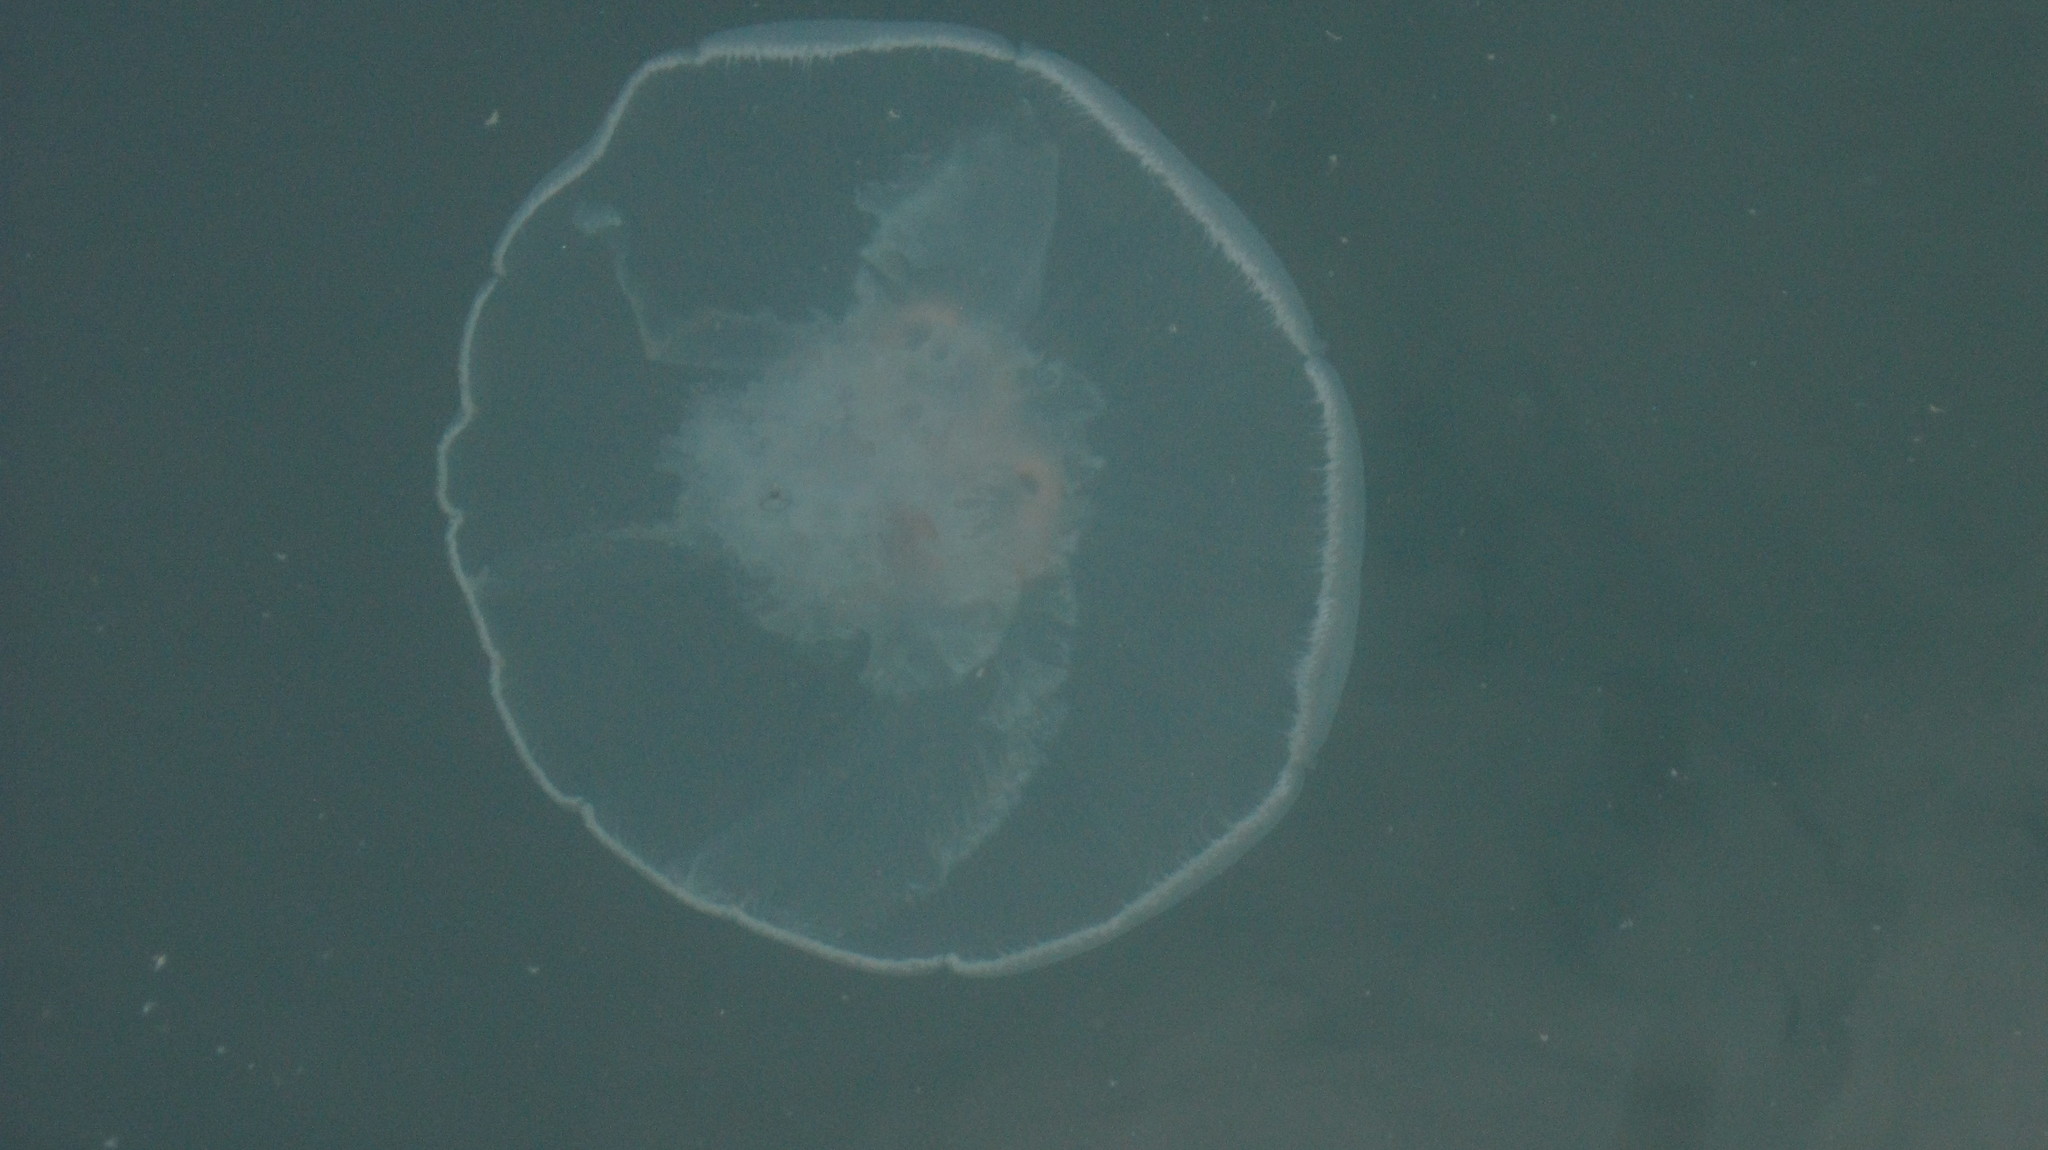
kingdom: Animalia
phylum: Cnidaria
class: Scyphozoa
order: Semaeostomeae
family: Ulmaridae
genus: Aurelia
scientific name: Aurelia labiata
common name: Pacific moon jelly
